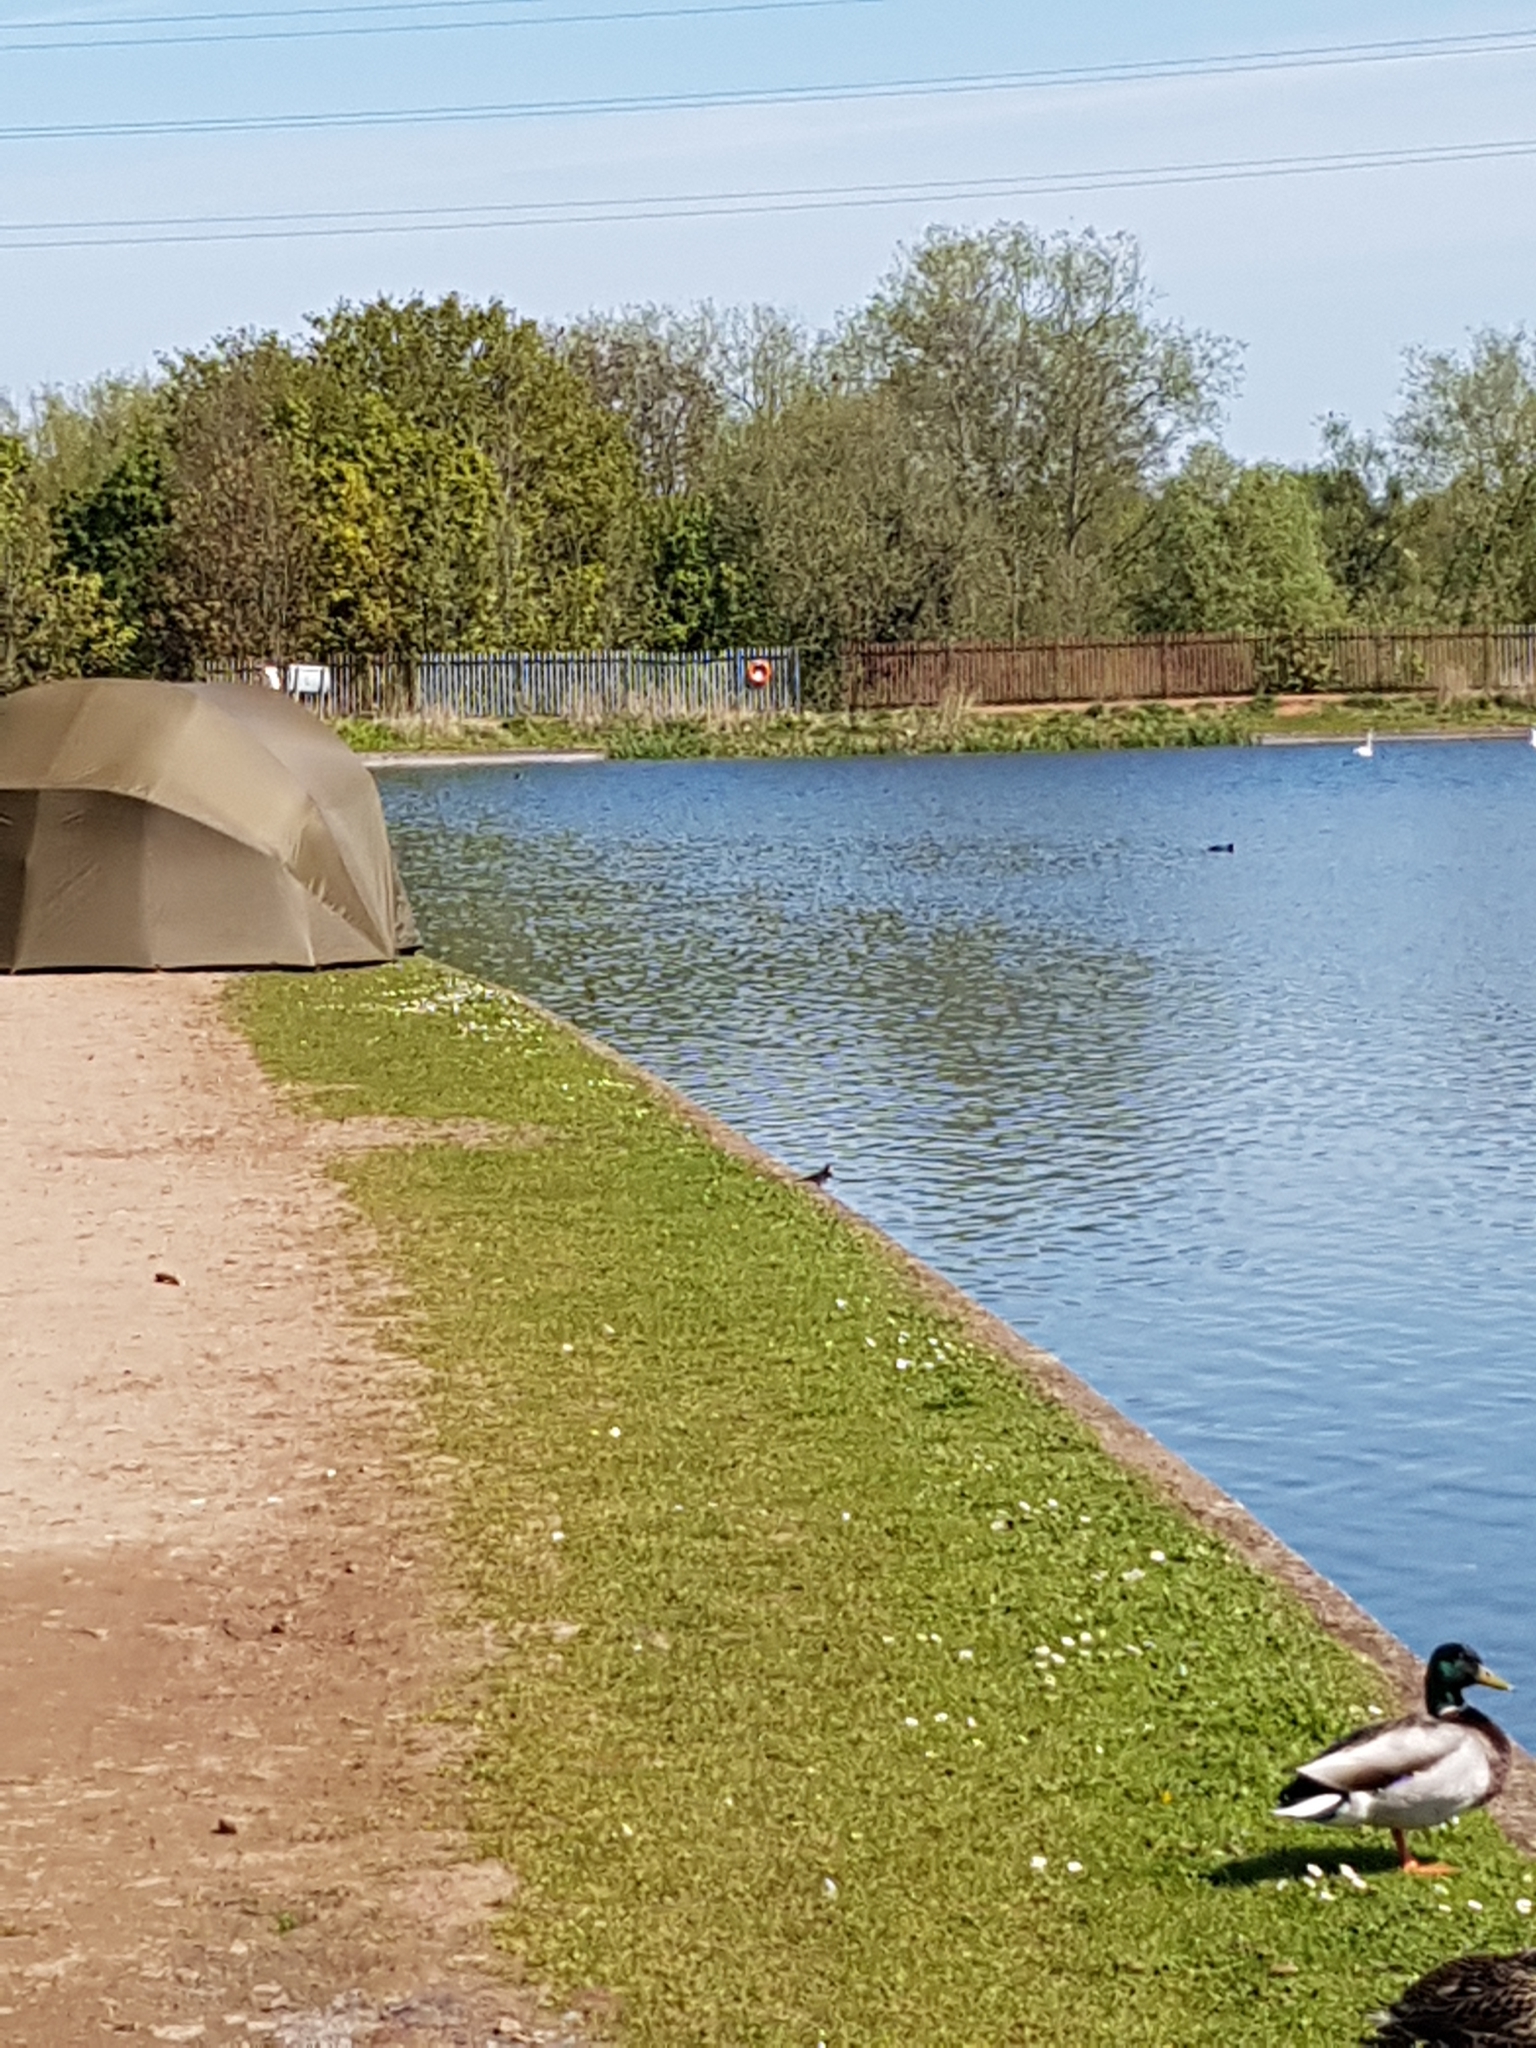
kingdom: Animalia
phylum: Chordata
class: Aves
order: Passeriformes
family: Motacillidae
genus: Motacilla
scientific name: Motacilla alba
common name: White wagtail
